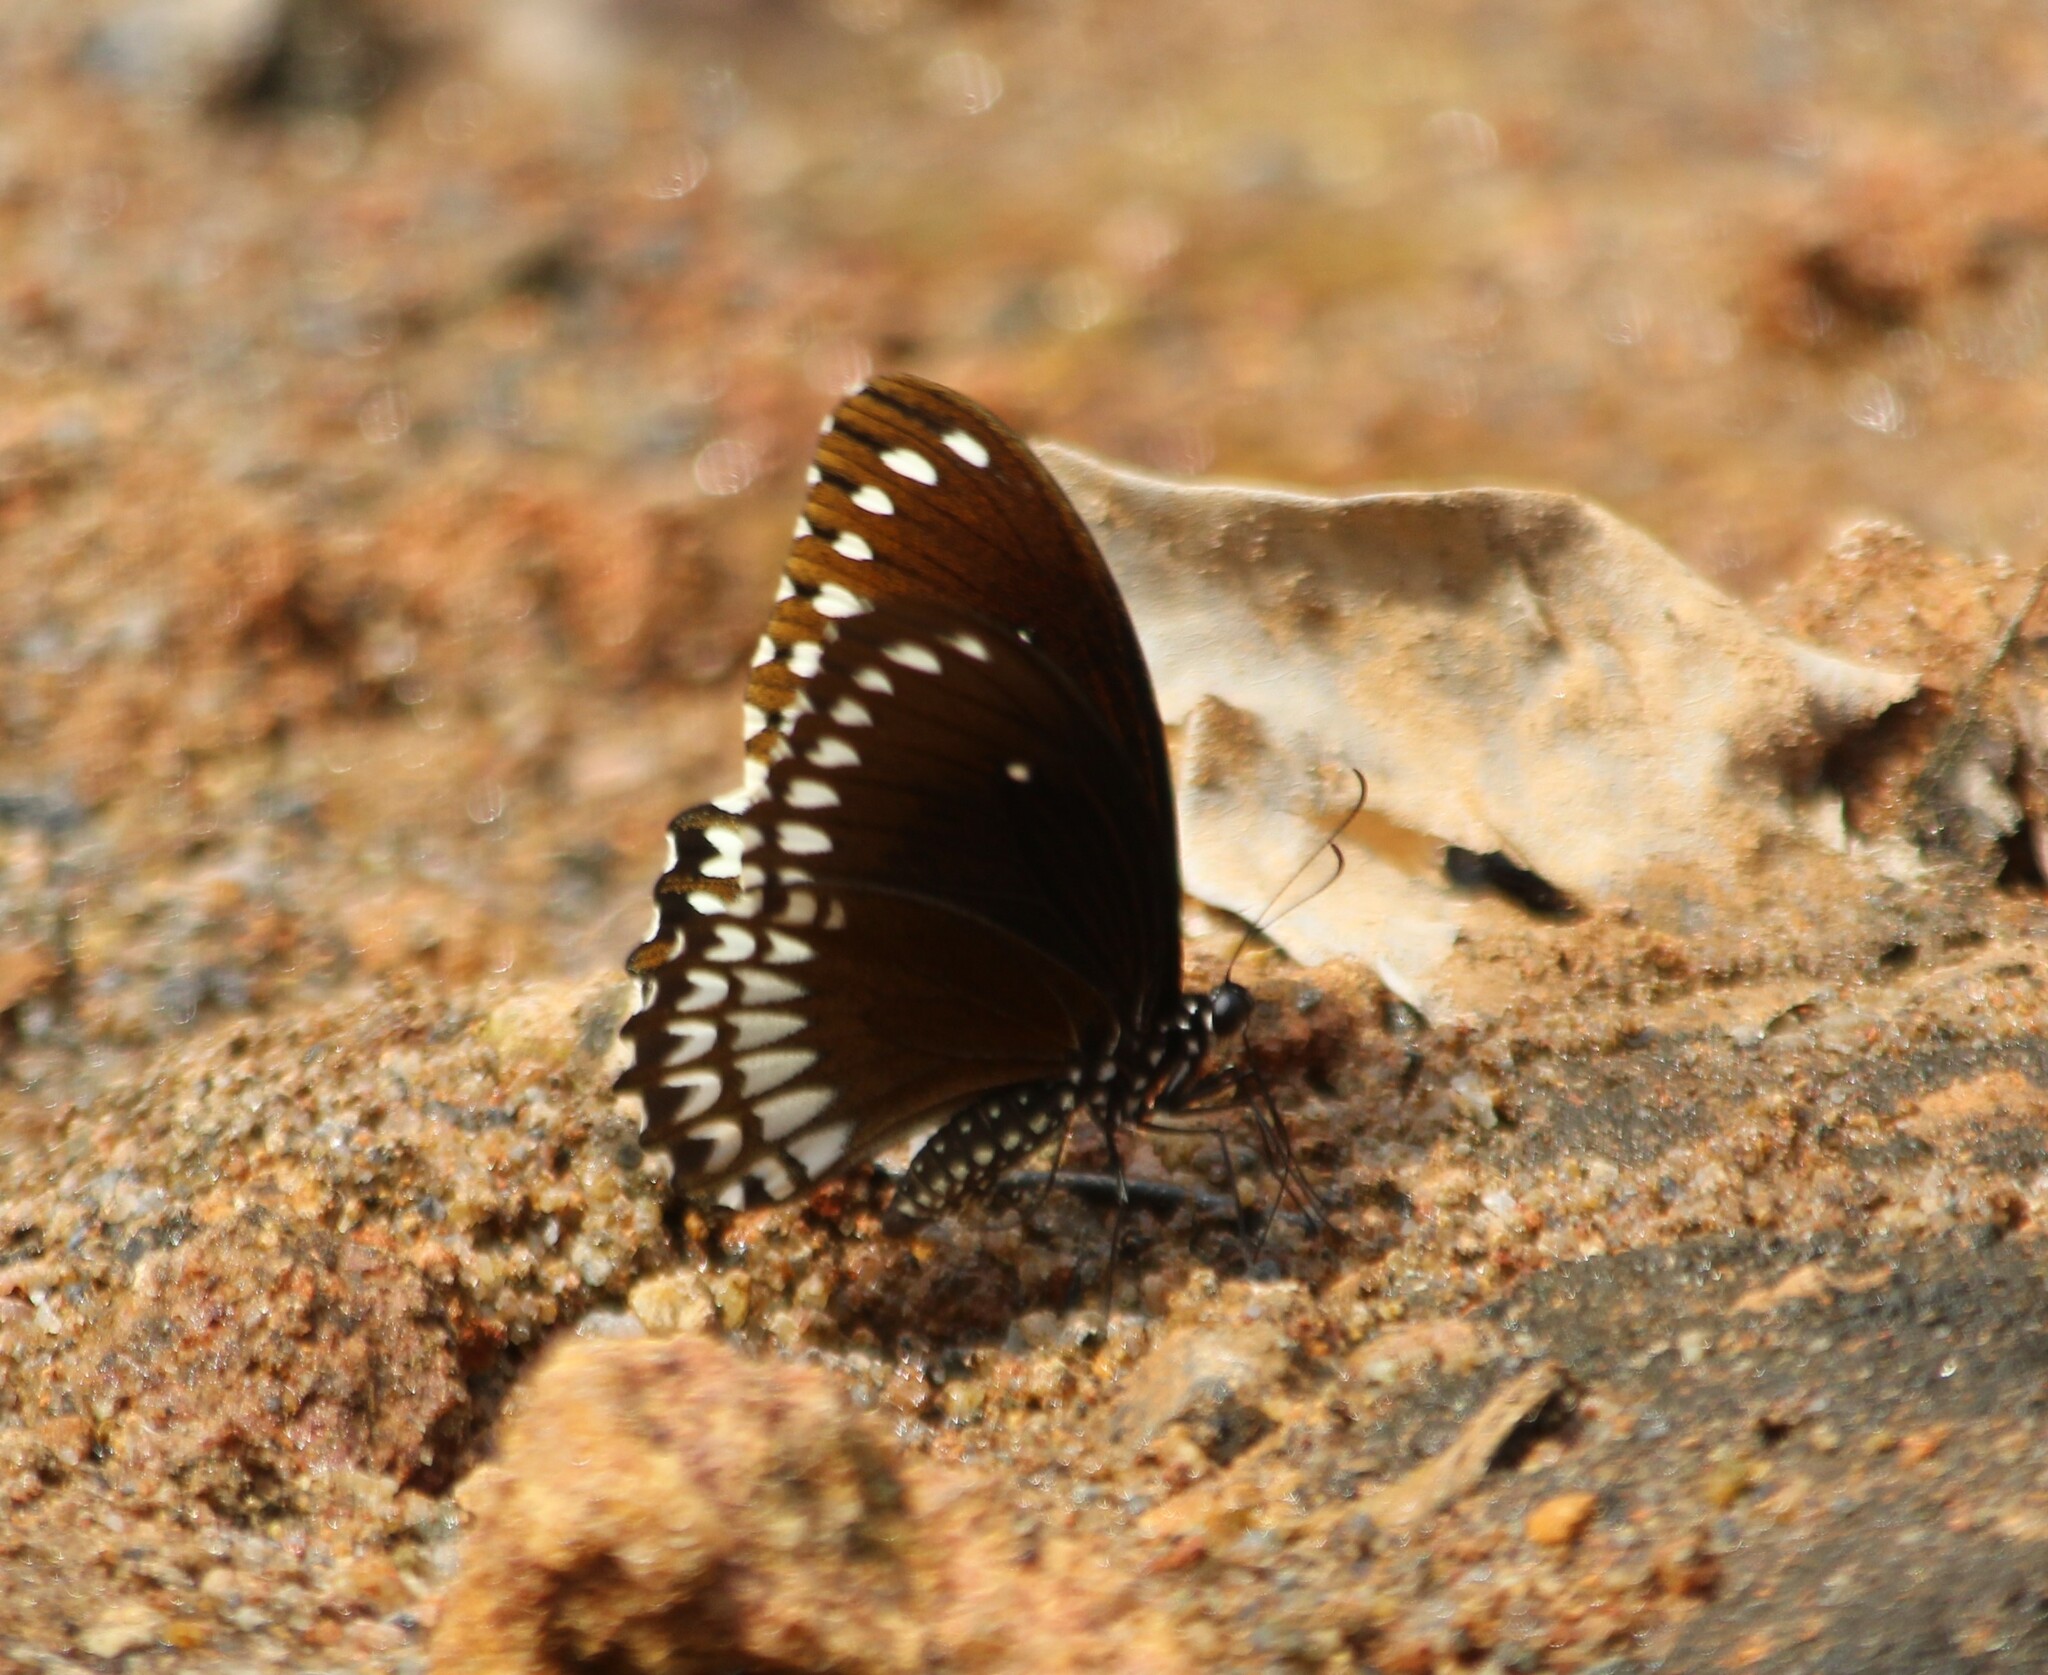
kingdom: Animalia
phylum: Arthropoda
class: Insecta
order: Lepidoptera
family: Papilionidae
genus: Papilio
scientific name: Papilio dravidarum
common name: Malabar raven
